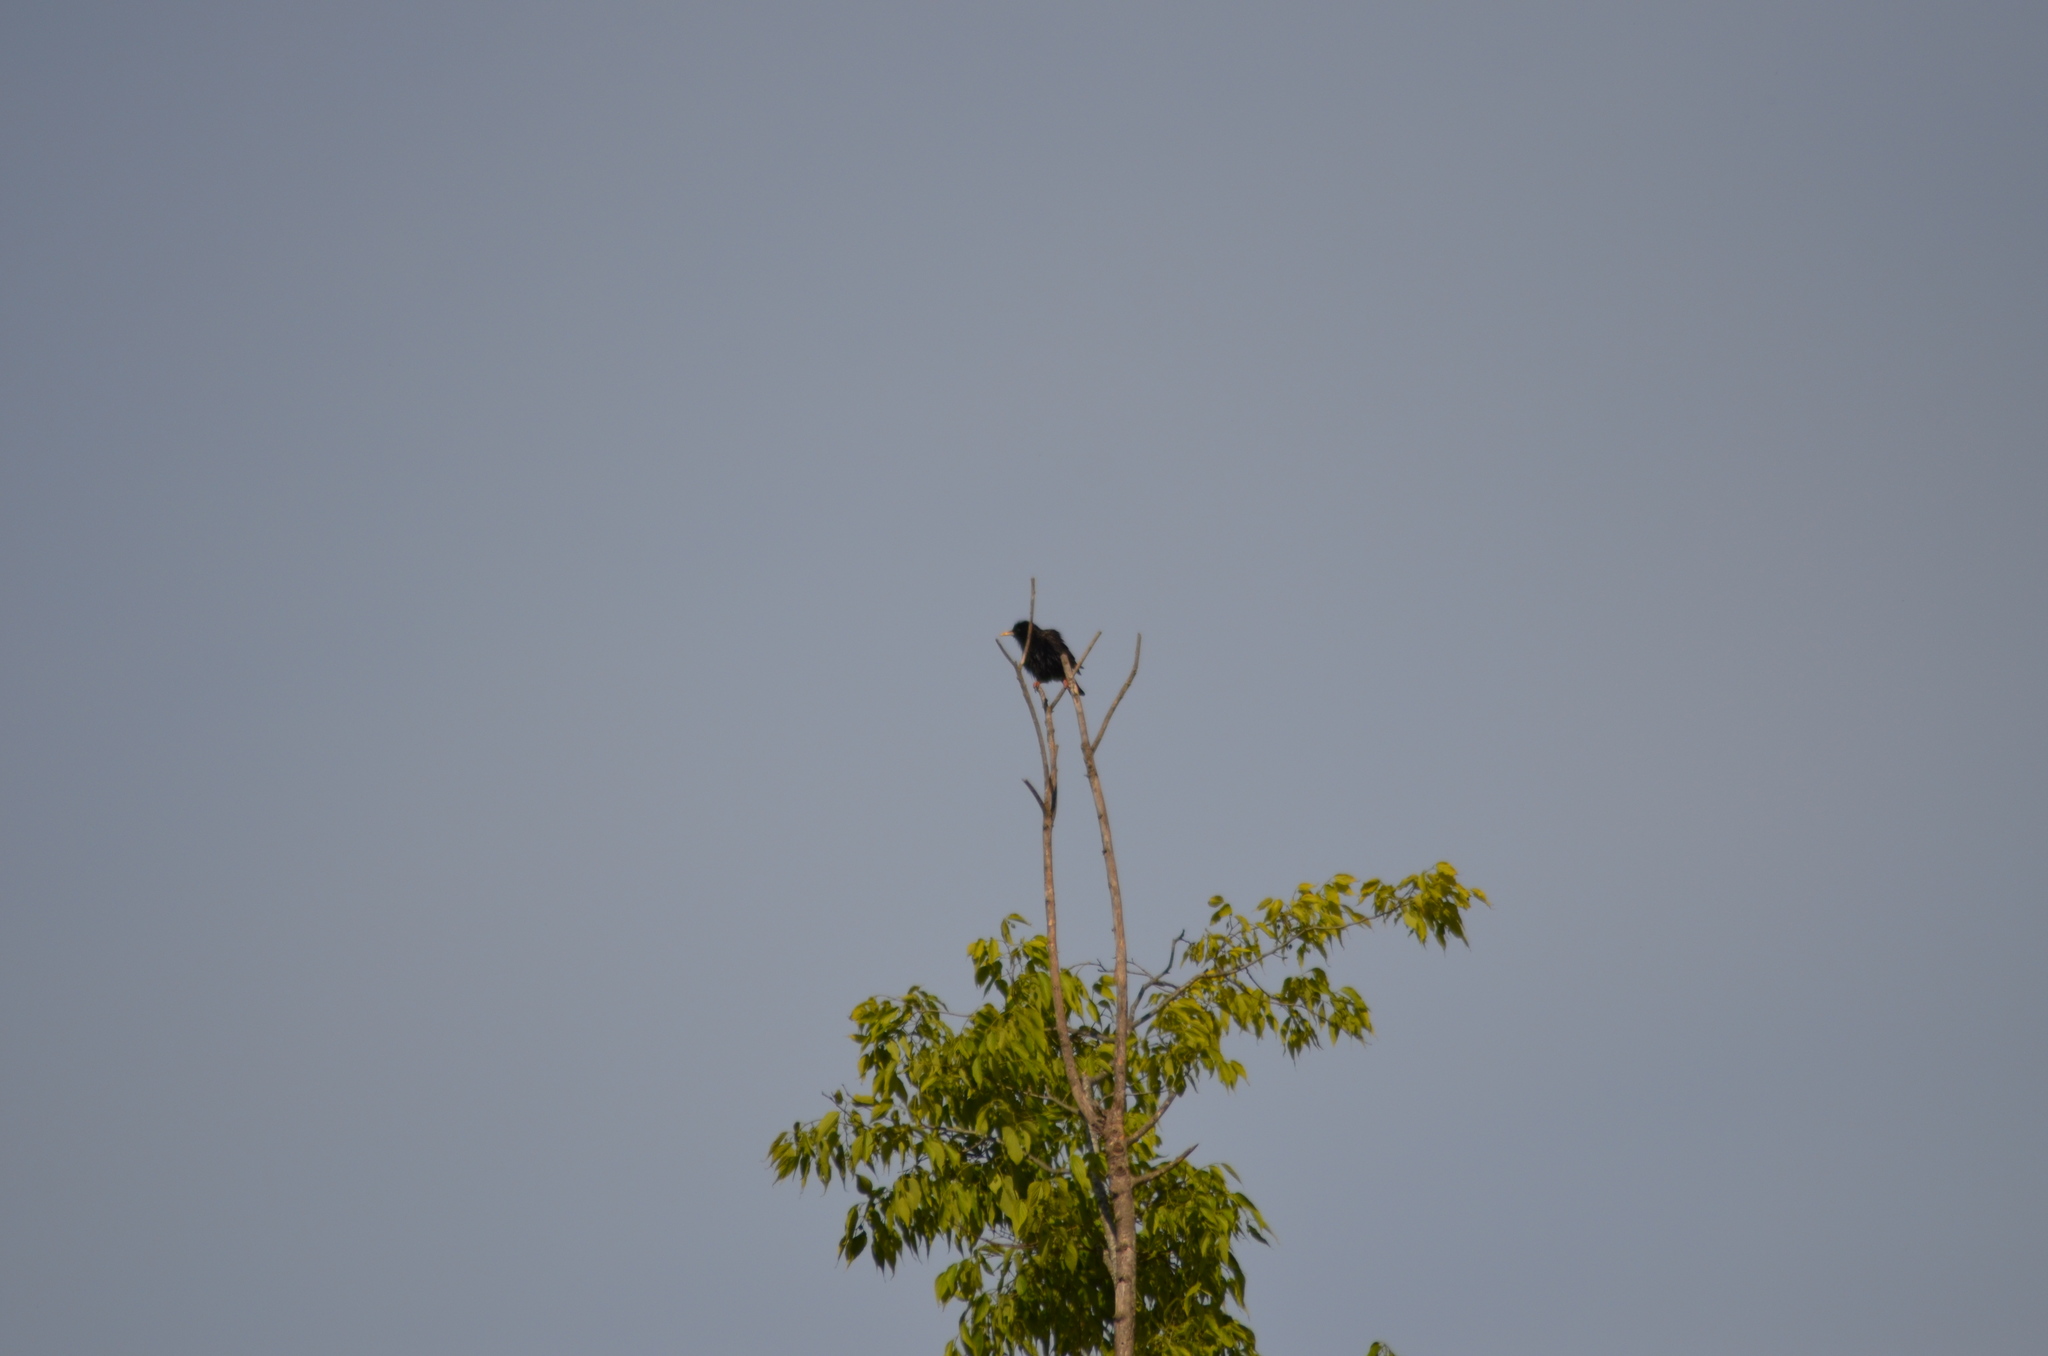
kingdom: Animalia
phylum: Chordata
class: Aves
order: Passeriformes
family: Sturnidae
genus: Sturnus
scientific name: Sturnus unicolor
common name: Spotless starling
